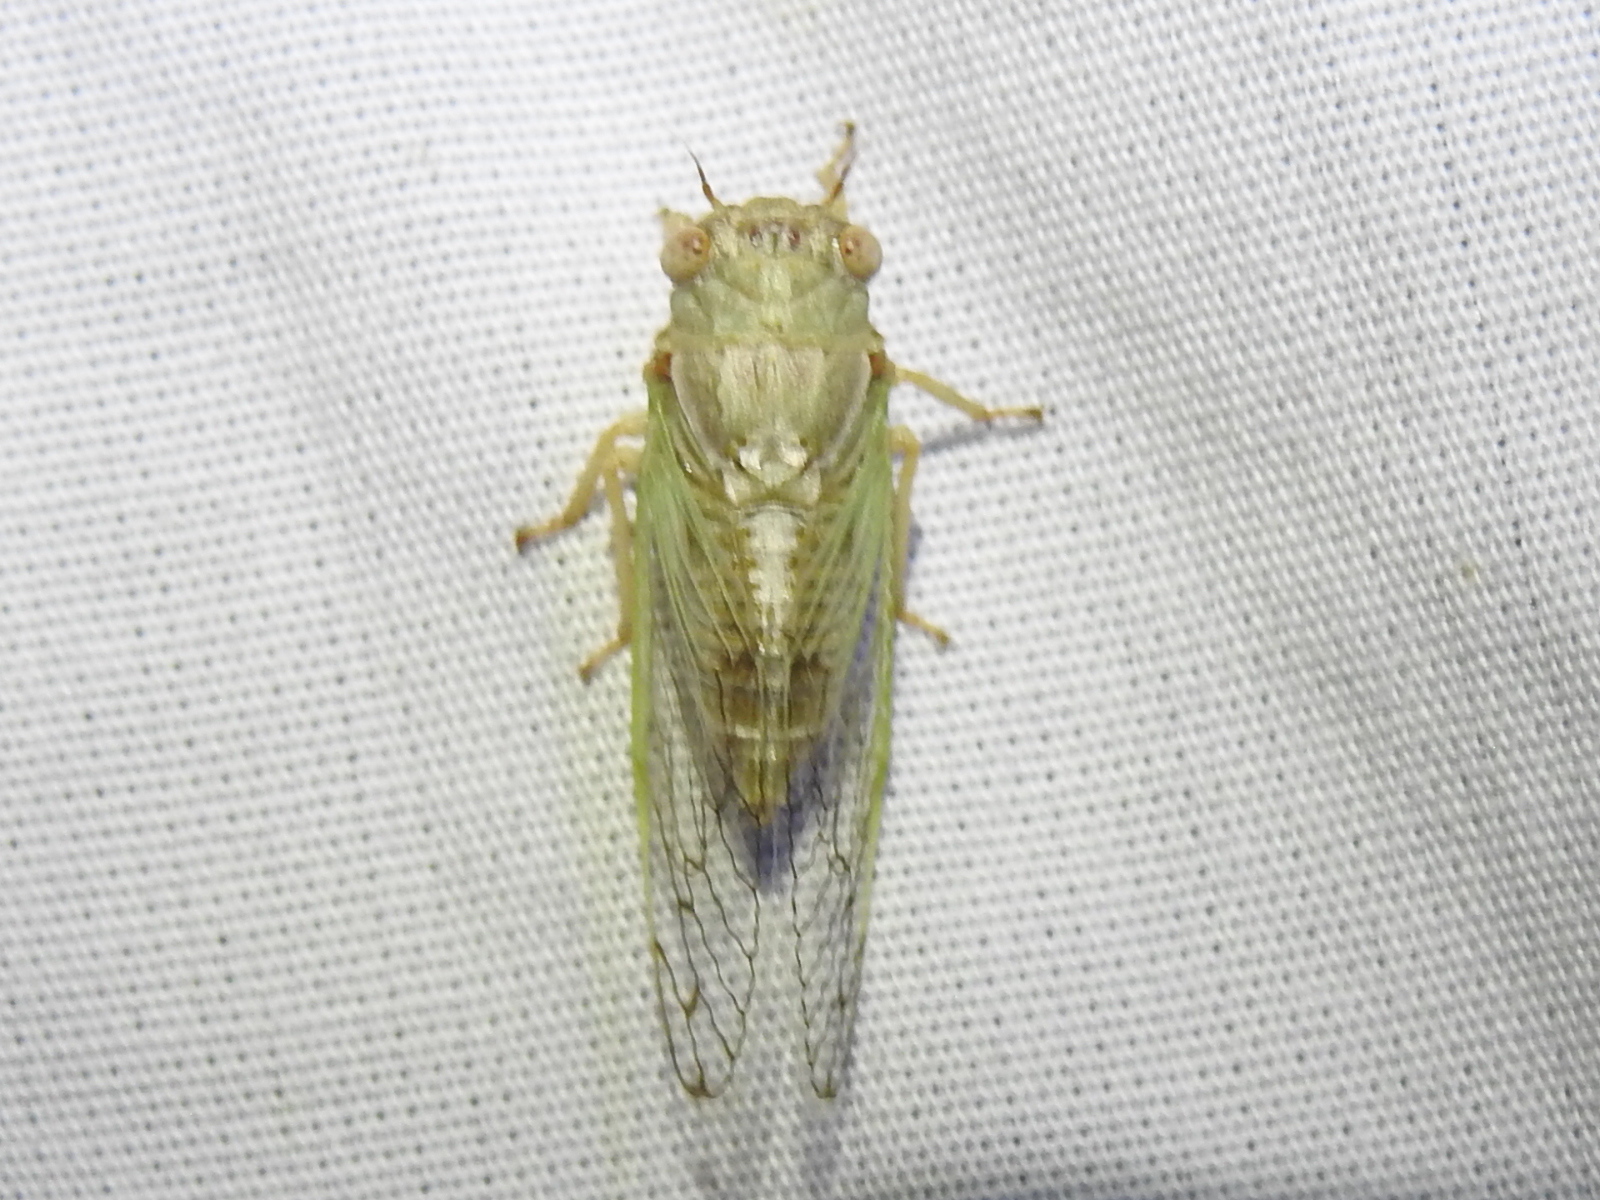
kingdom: Animalia
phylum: Arthropoda
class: Insecta
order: Hemiptera
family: Cicadidae
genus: Beameria
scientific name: Beameria venosa
